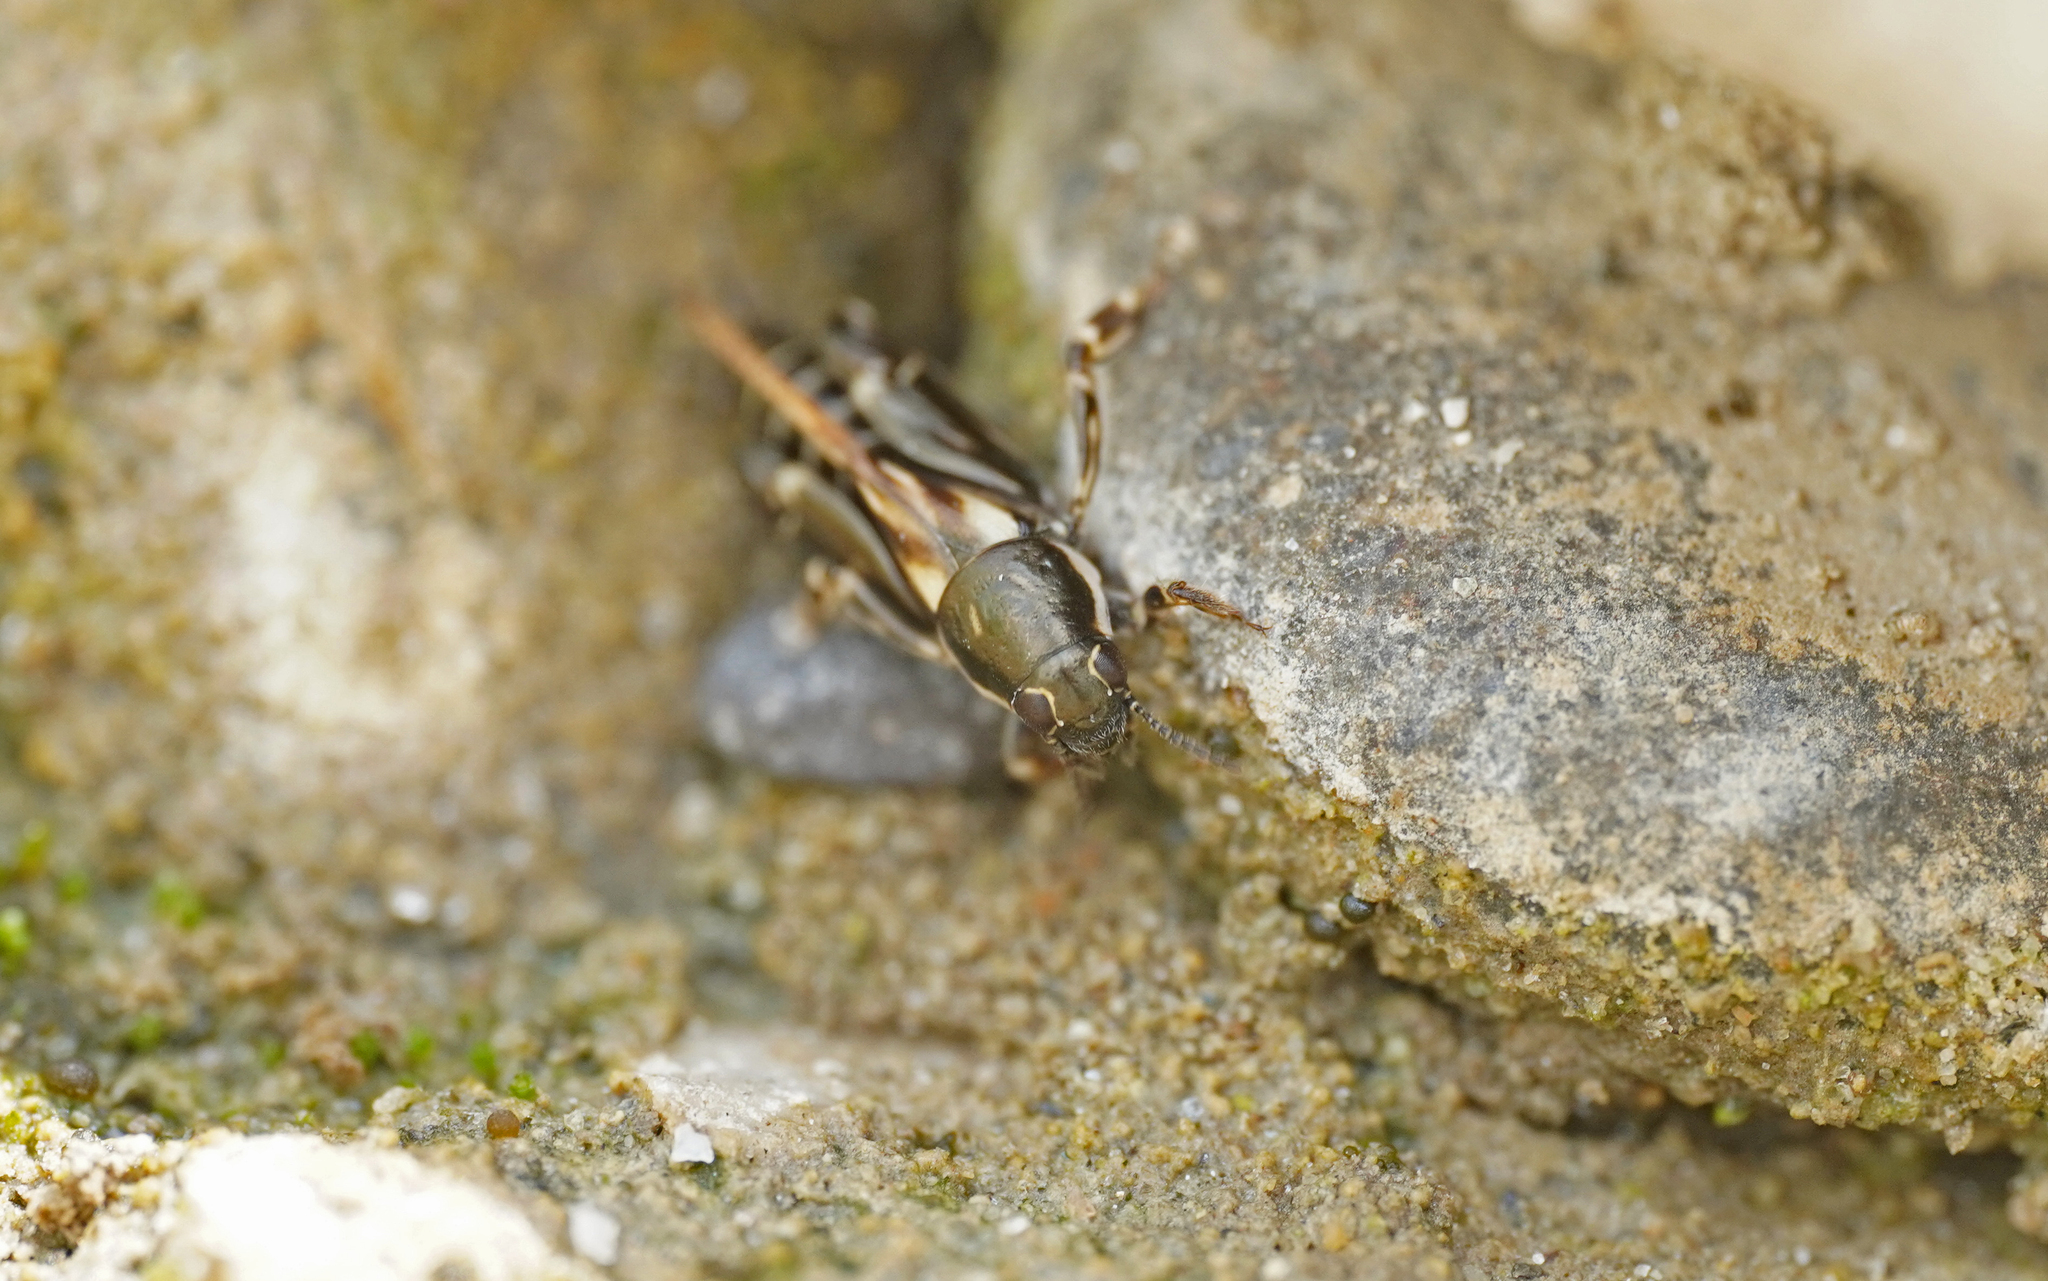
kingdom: Animalia
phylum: Arthropoda
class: Insecta
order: Orthoptera
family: Tridactylidae
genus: Xya
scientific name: Xya variegata
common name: Le tridactyle panaché
